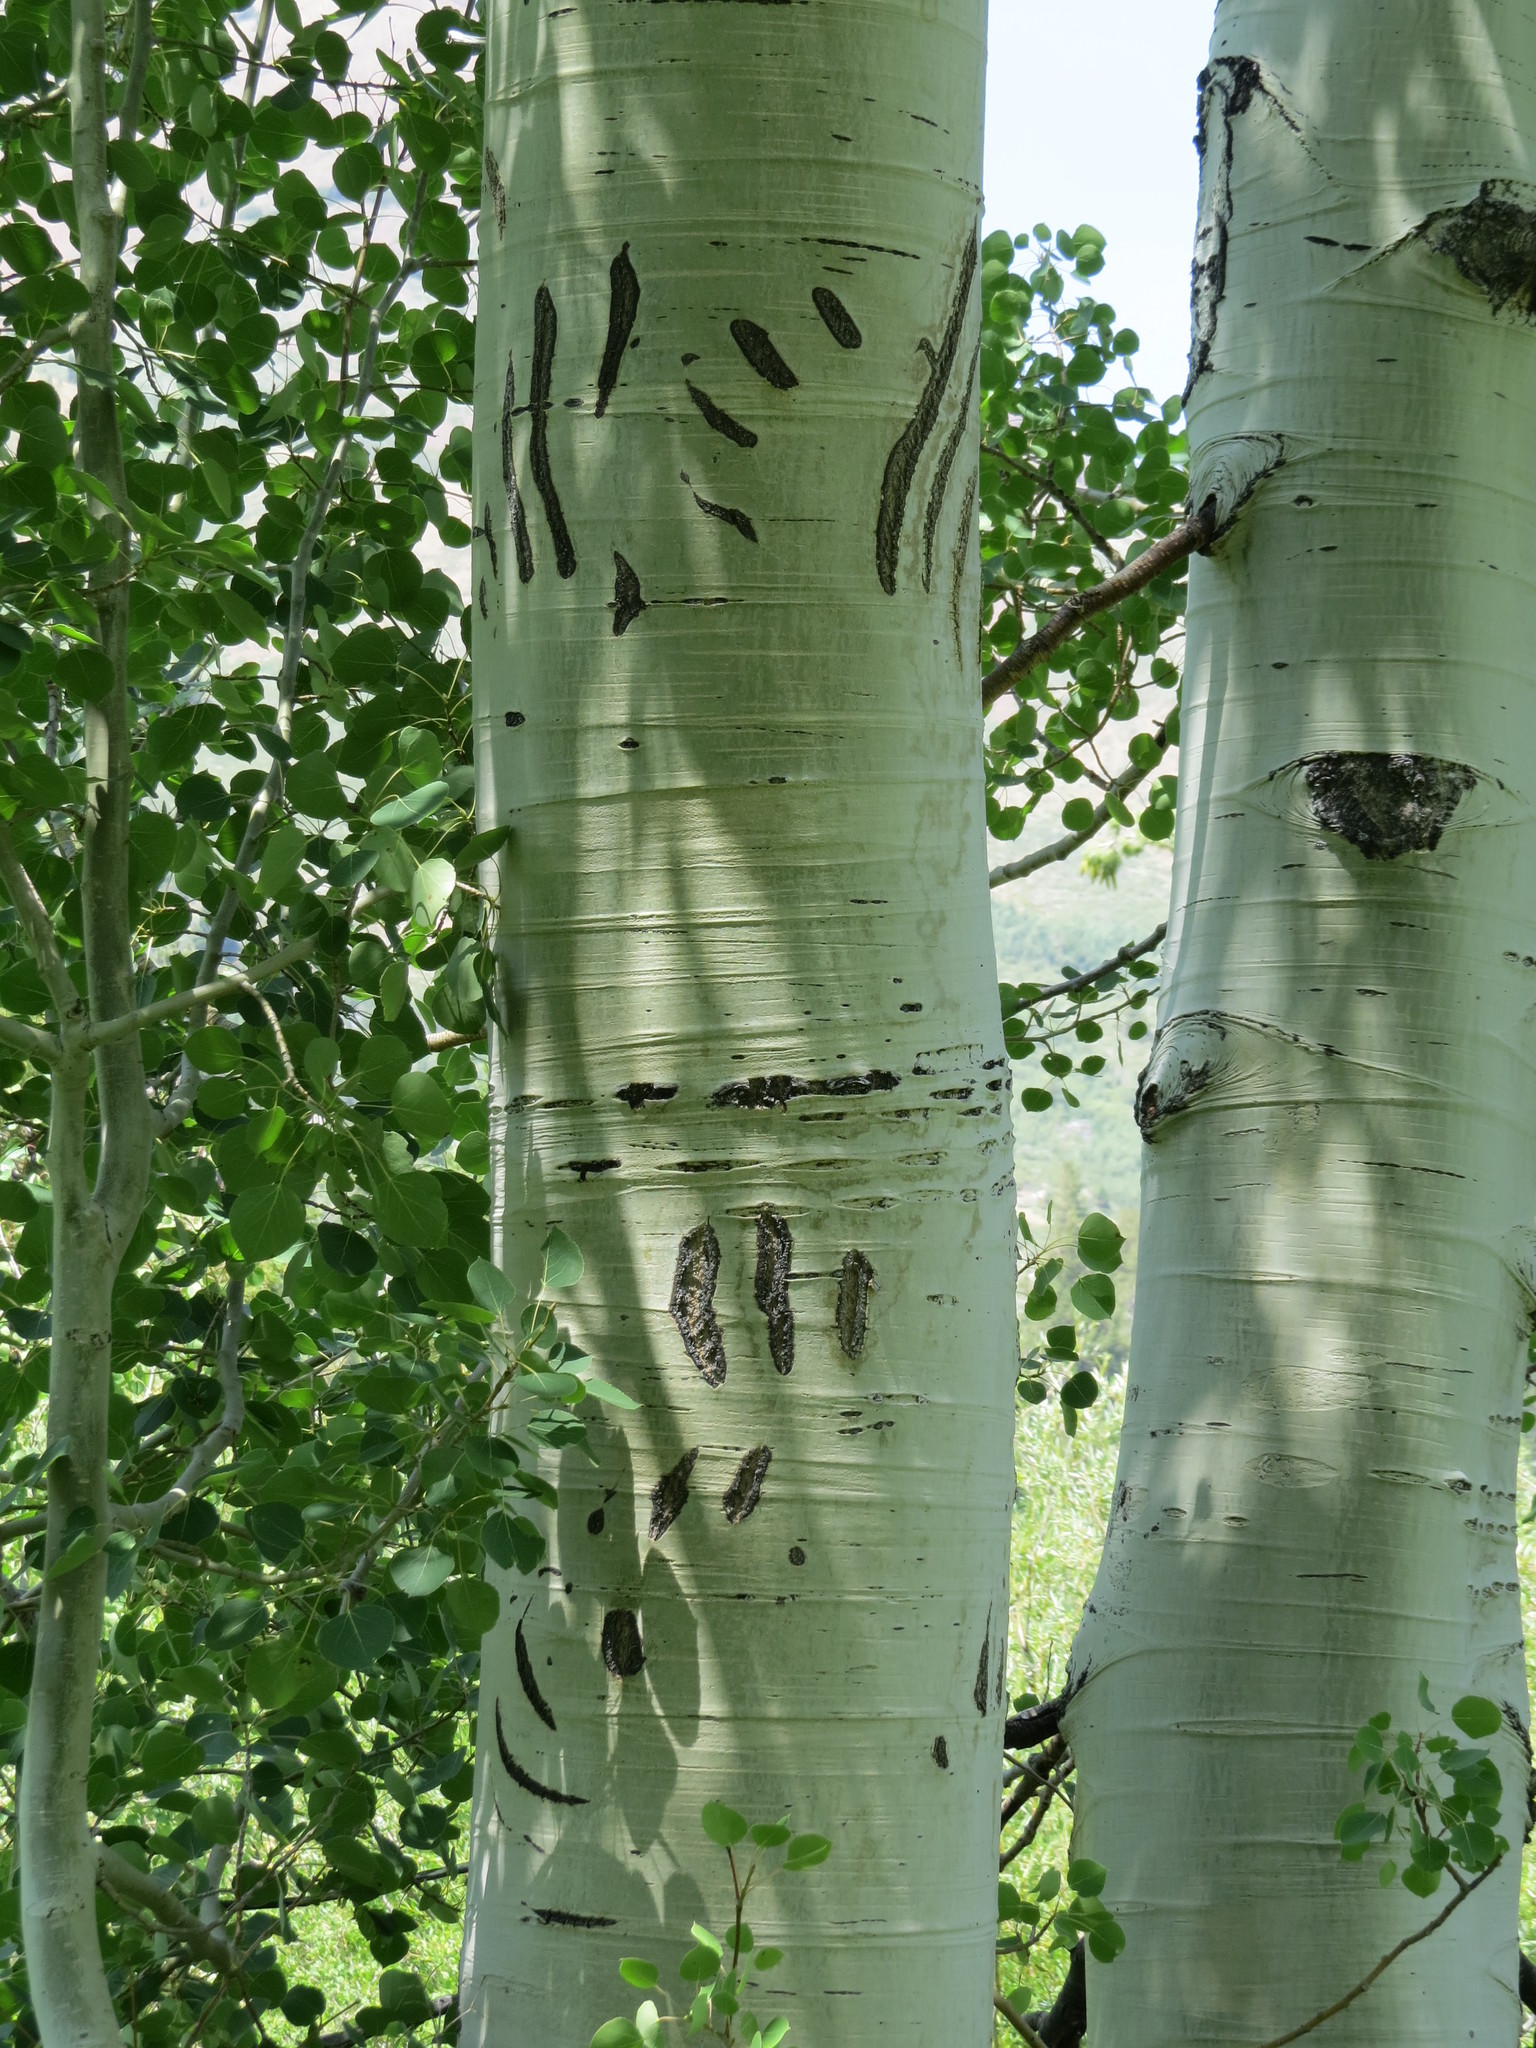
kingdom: Animalia
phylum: Chordata
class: Mammalia
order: Carnivora
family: Ursidae
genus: Ursus
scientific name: Ursus americanus
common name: American black bear
